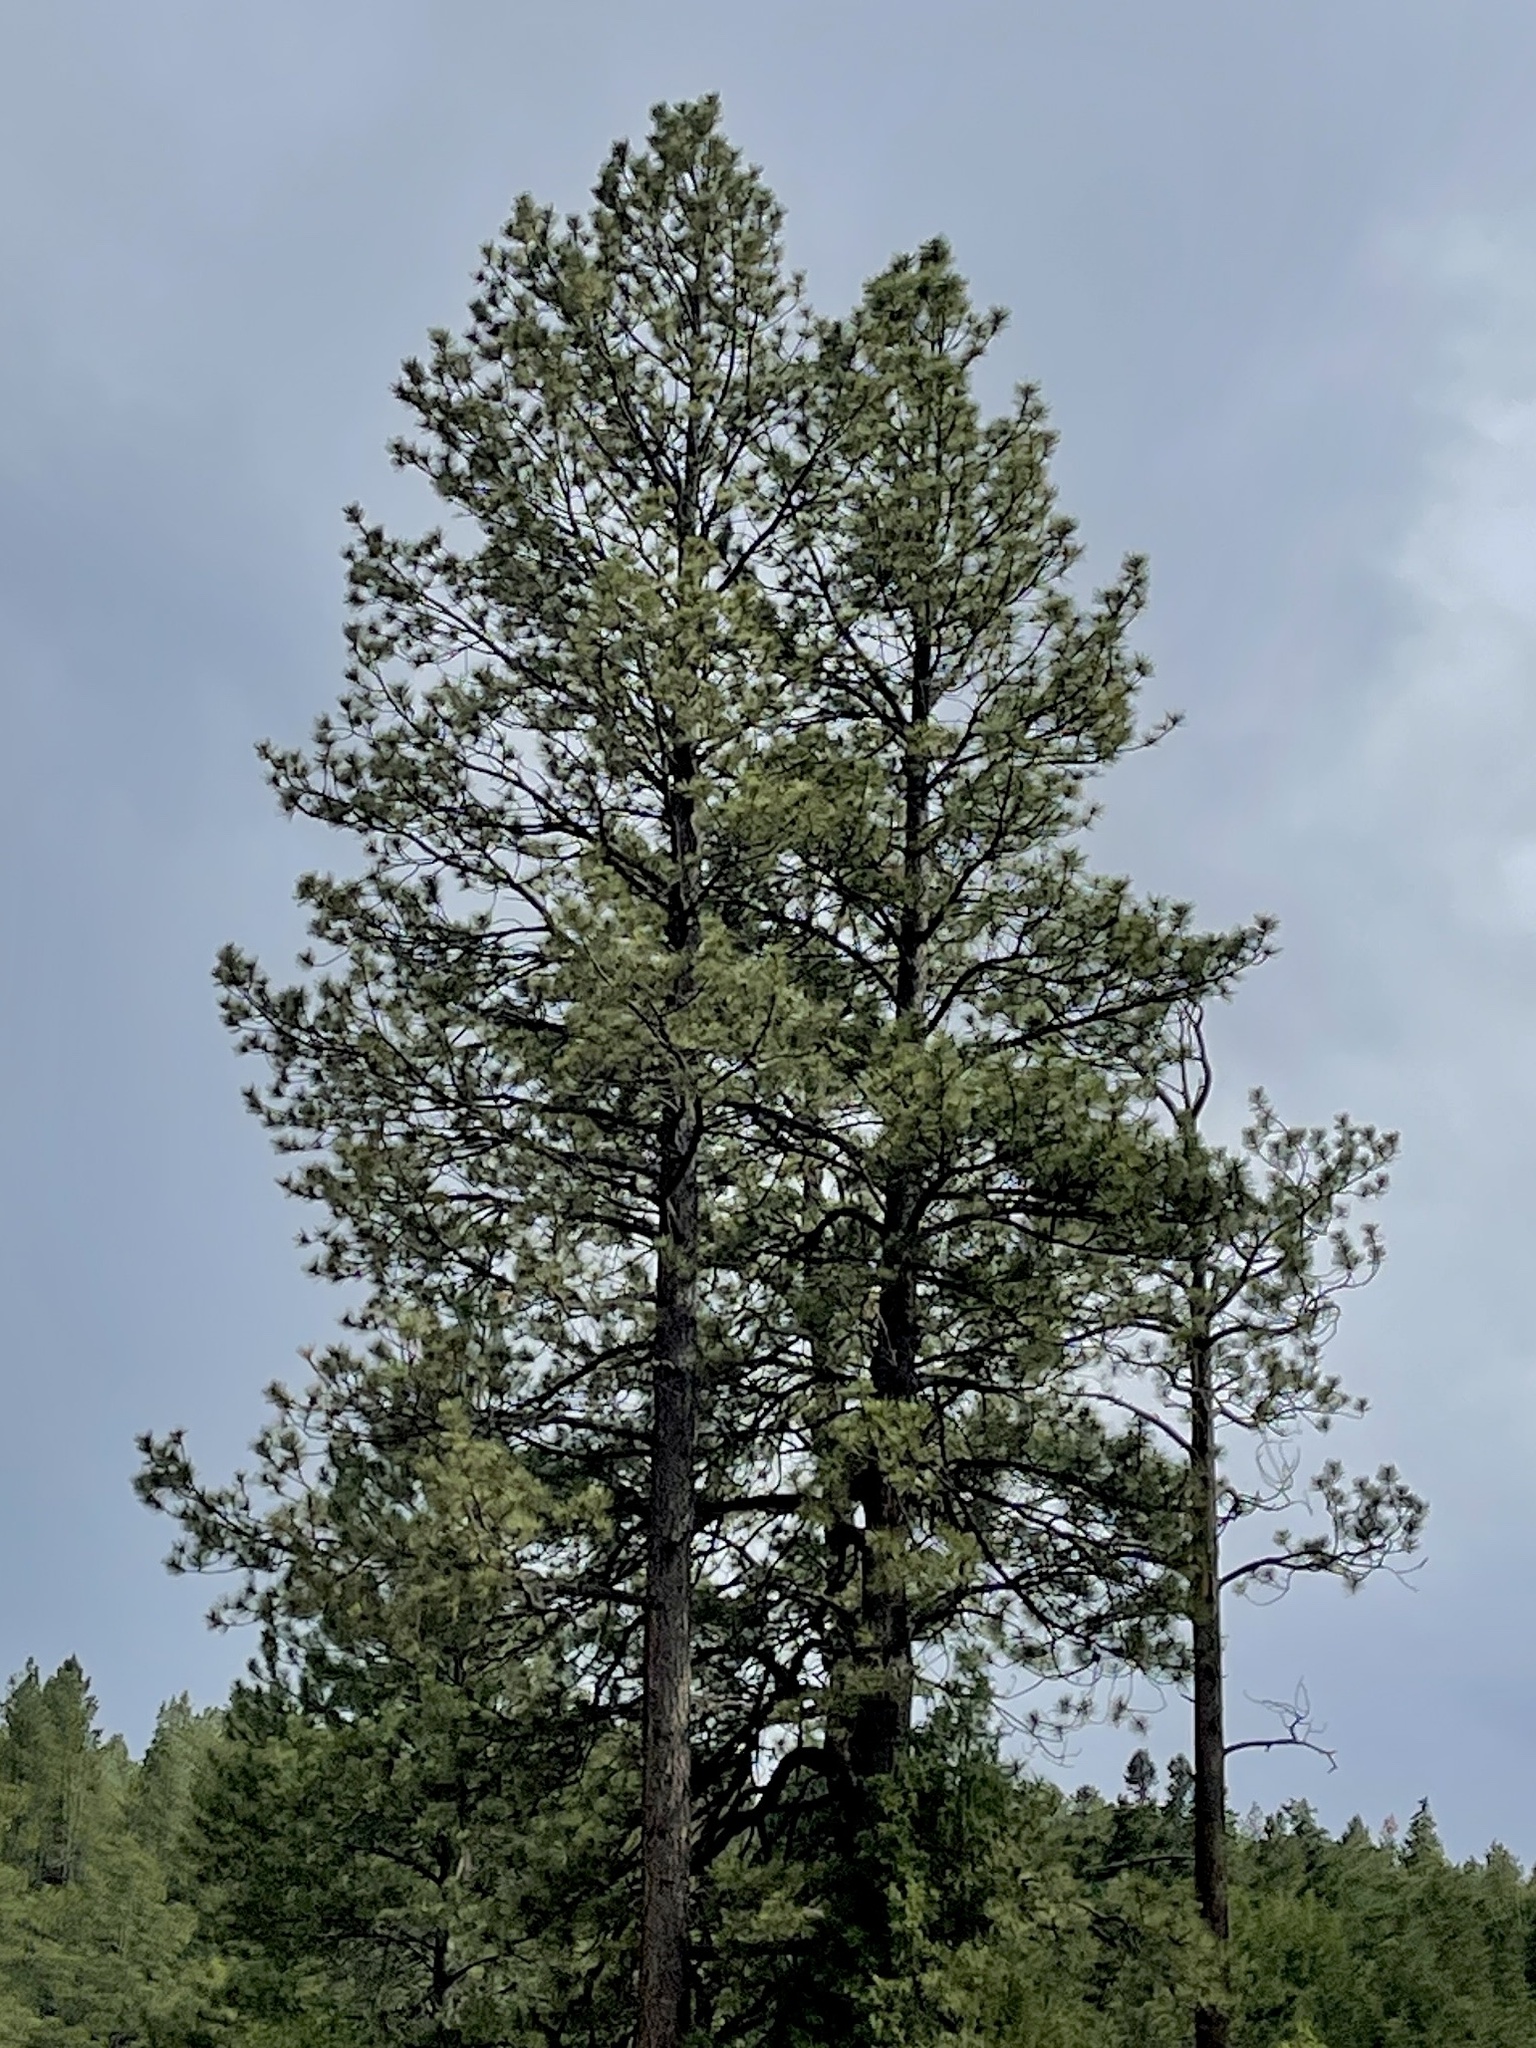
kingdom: Plantae
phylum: Tracheophyta
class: Pinopsida
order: Pinales
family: Pinaceae
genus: Pinus
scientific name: Pinus ponderosa
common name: Western yellow-pine
